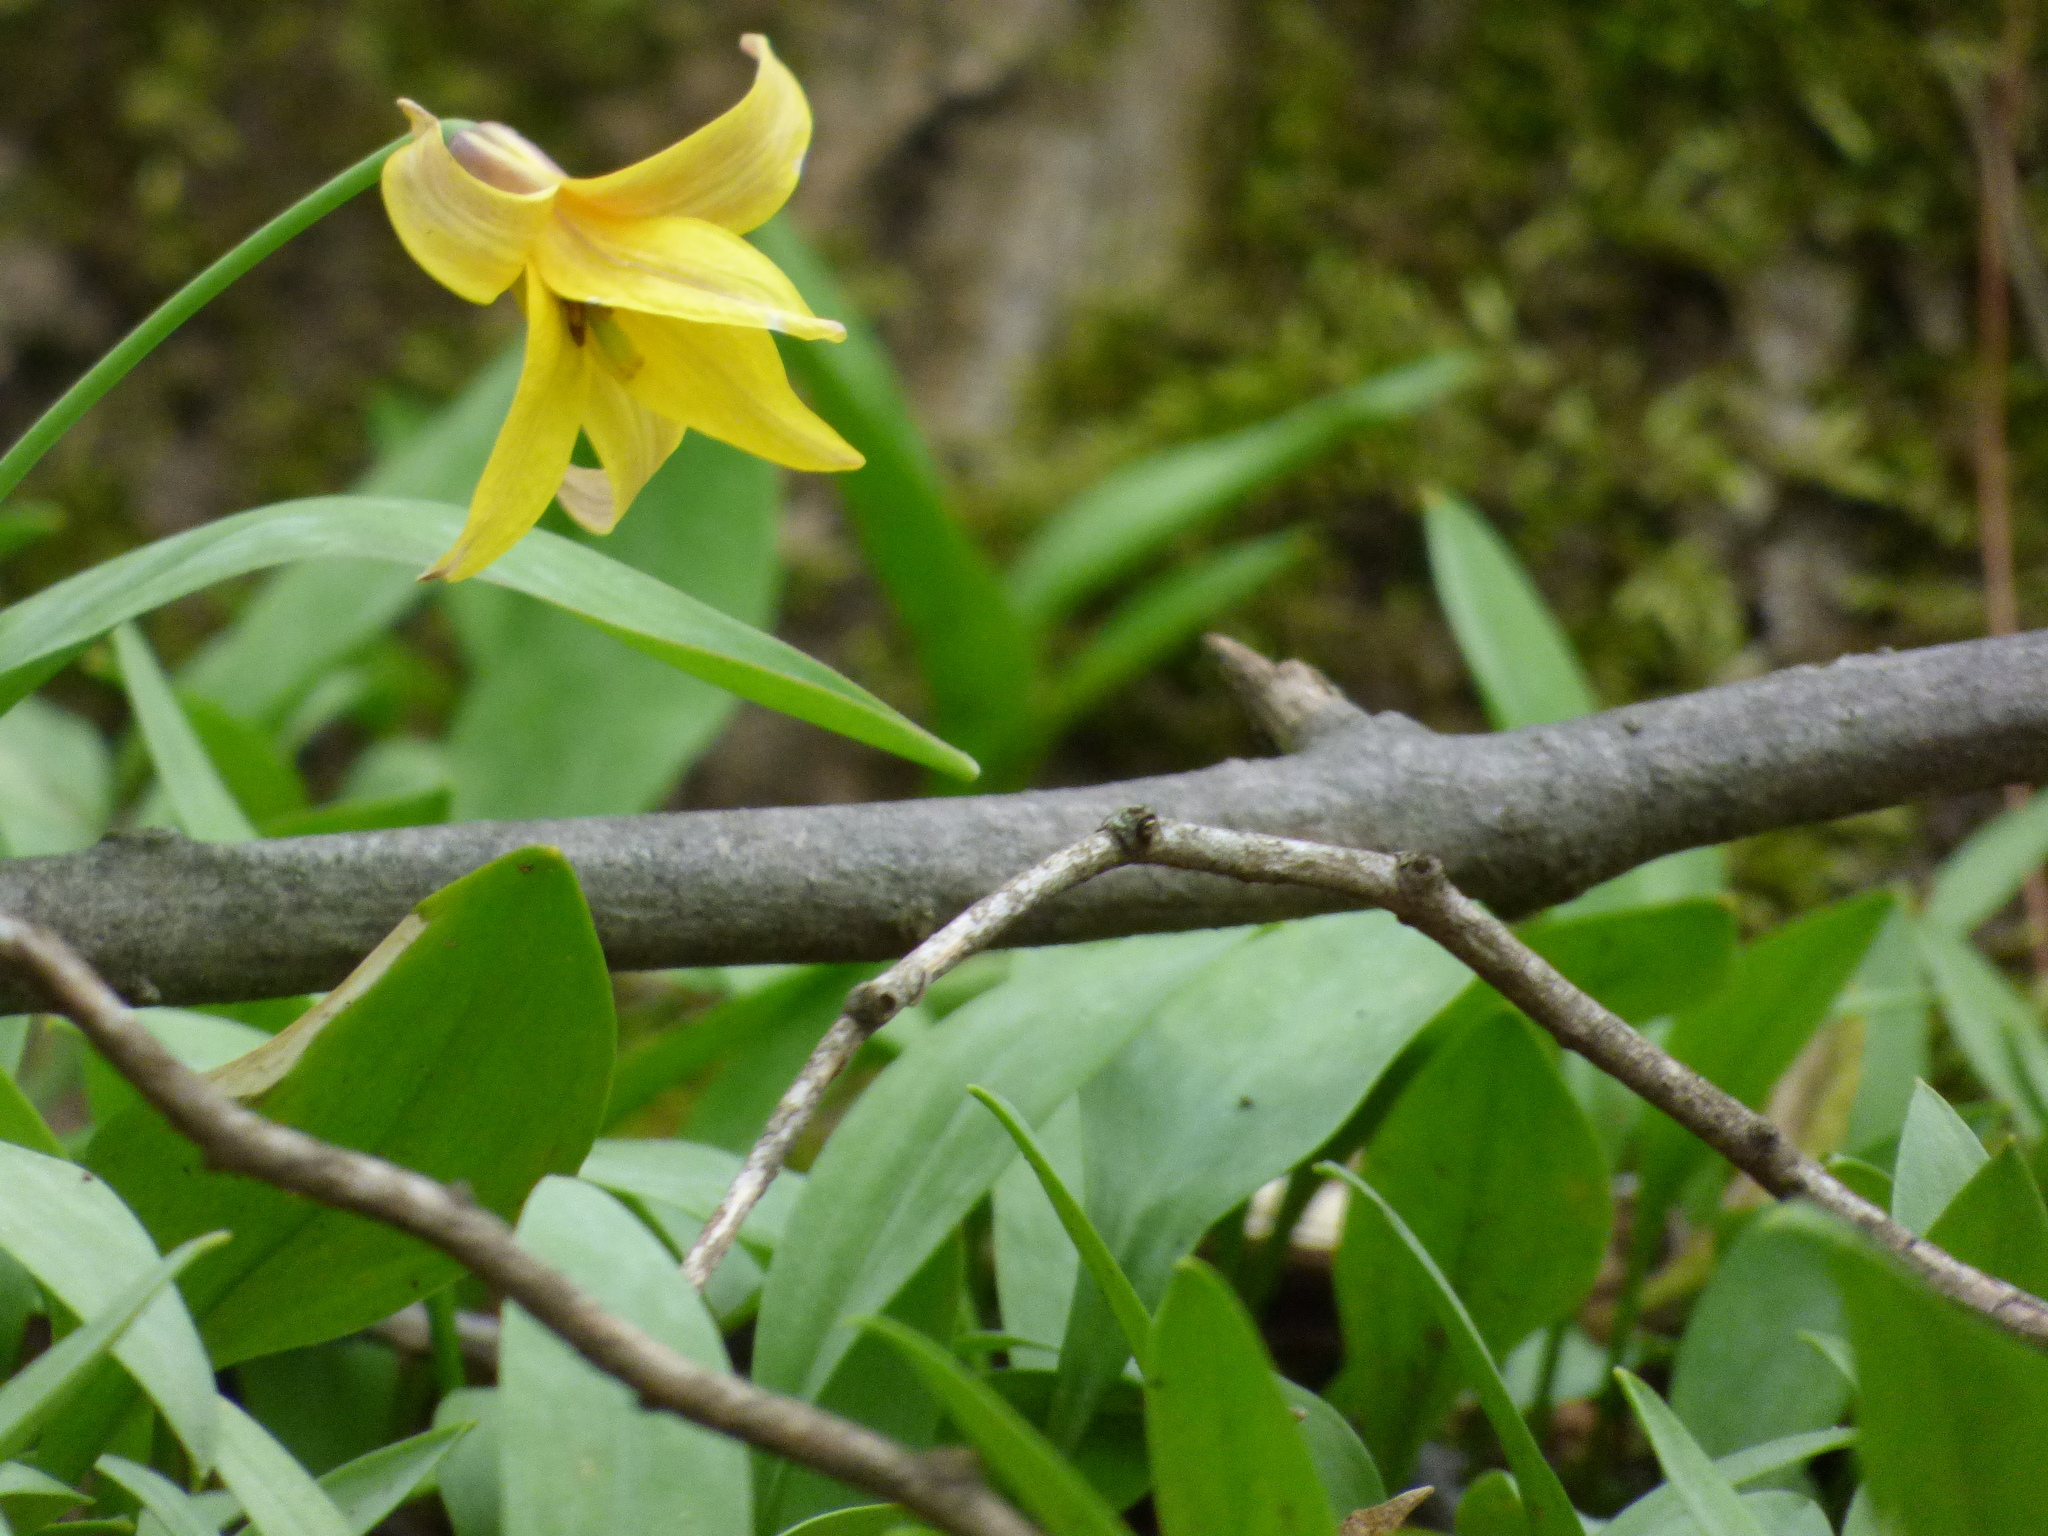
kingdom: Plantae
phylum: Tracheophyta
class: Liliopsida
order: Liliales
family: Liliaceae
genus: Erythronium
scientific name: Erythronium americanum
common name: Yellow adder's-tongue
